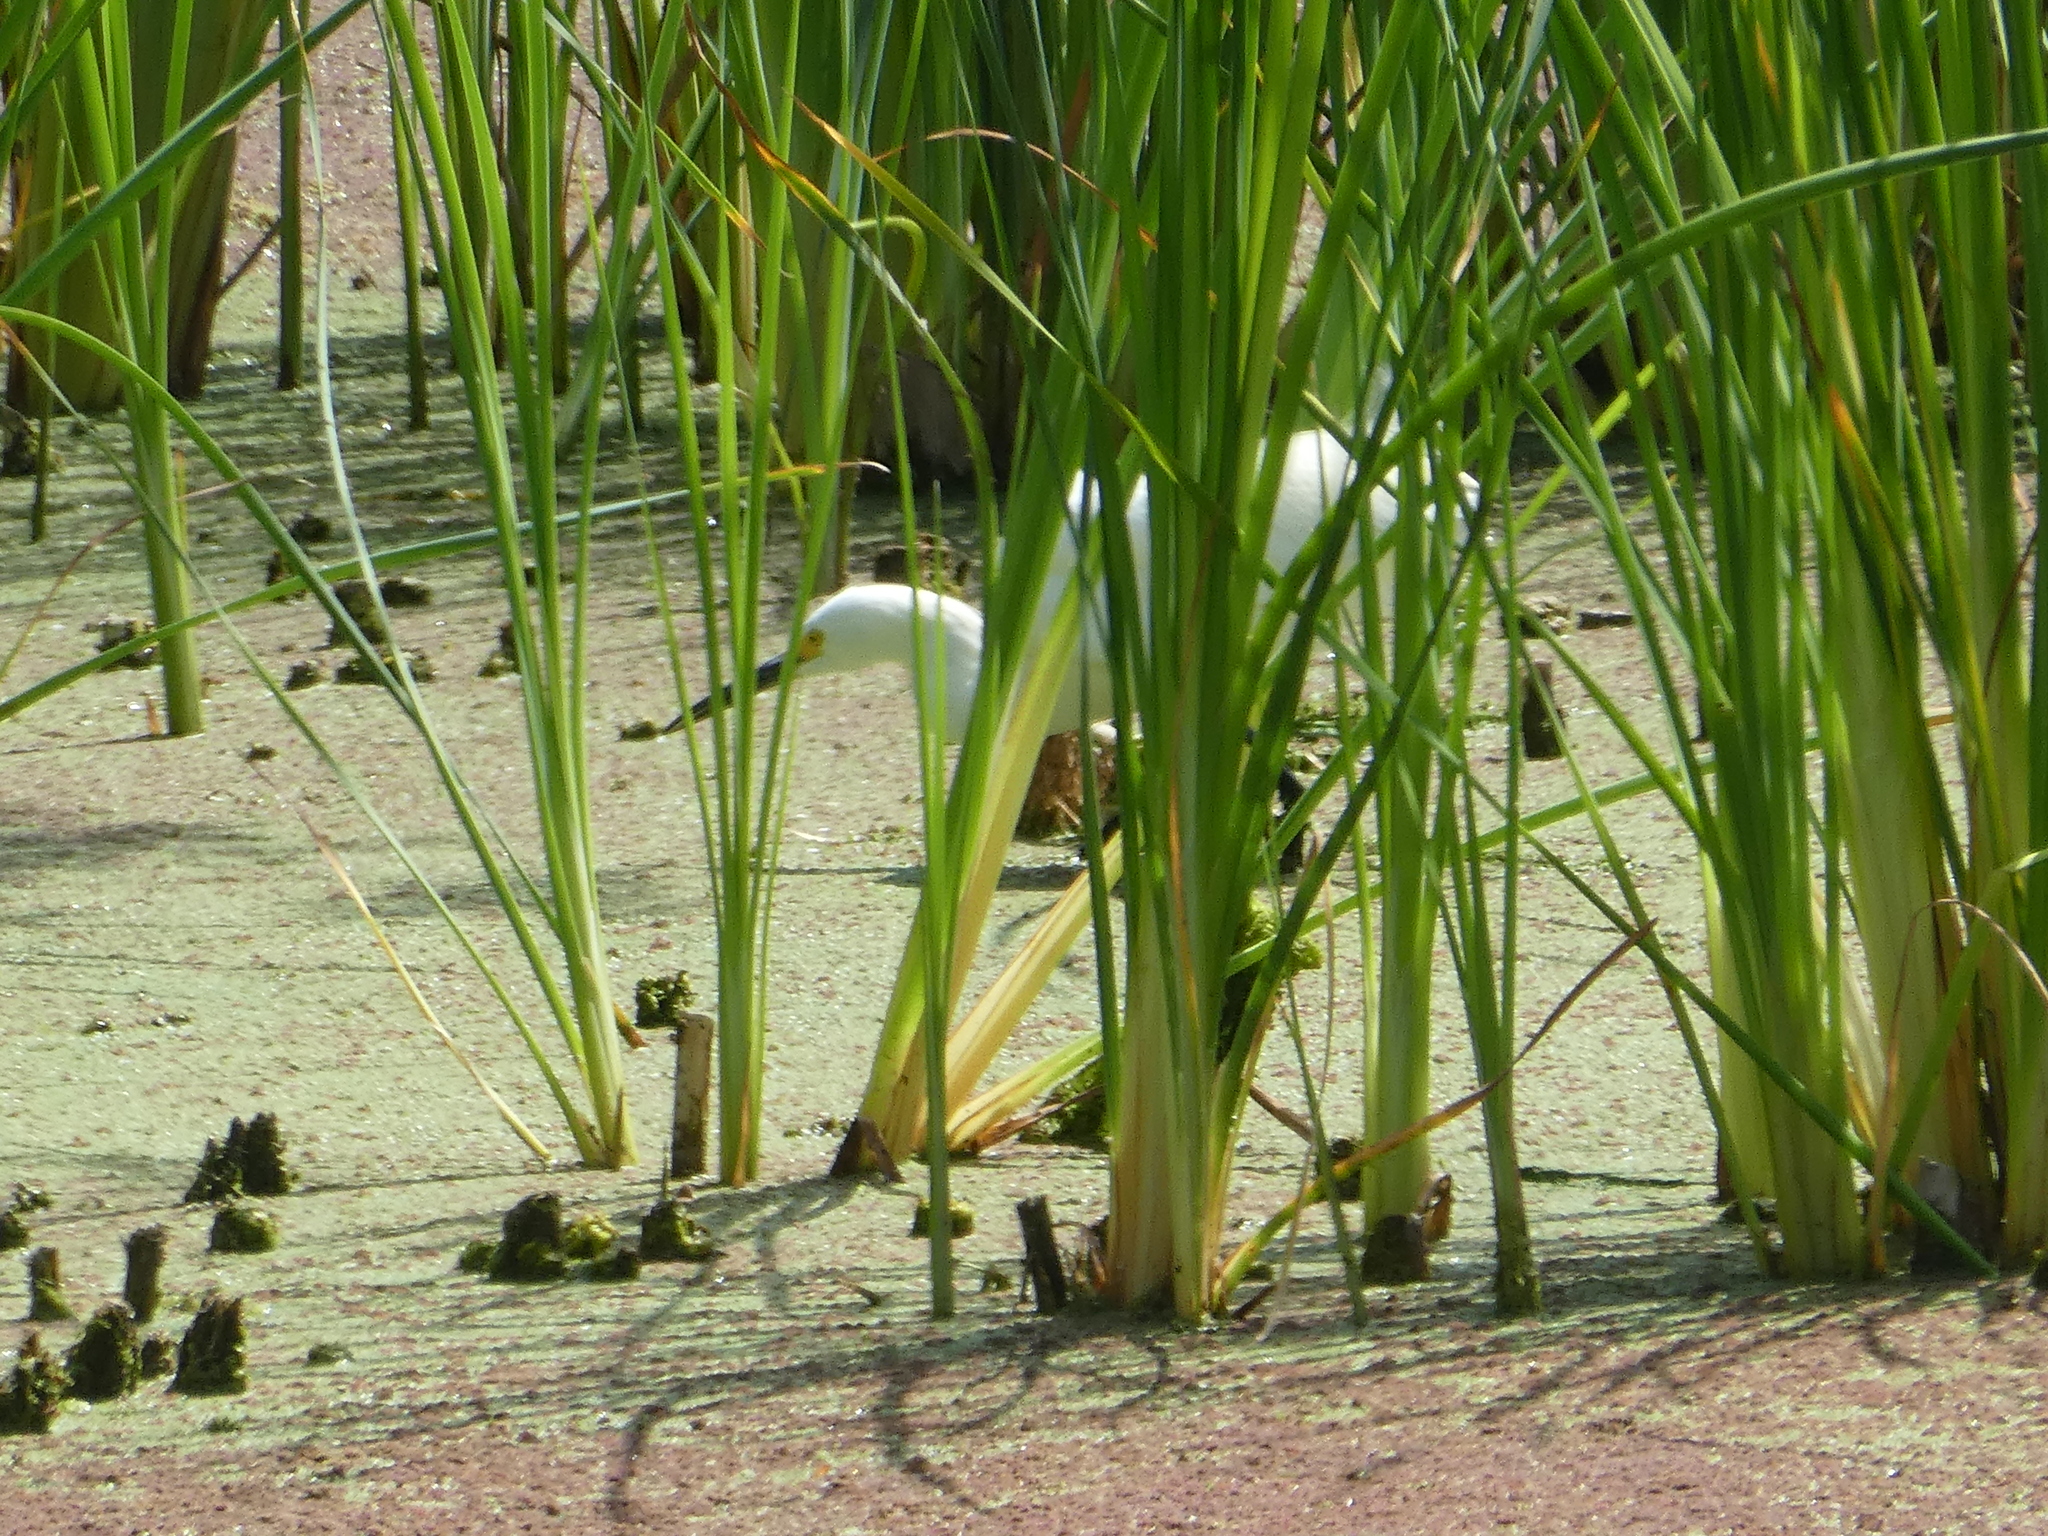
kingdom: Animalia
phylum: Chordata
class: Aves
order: Pelecaniformes
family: Ardeidae
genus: Egretta
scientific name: Egretta thula
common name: Snowy egret
